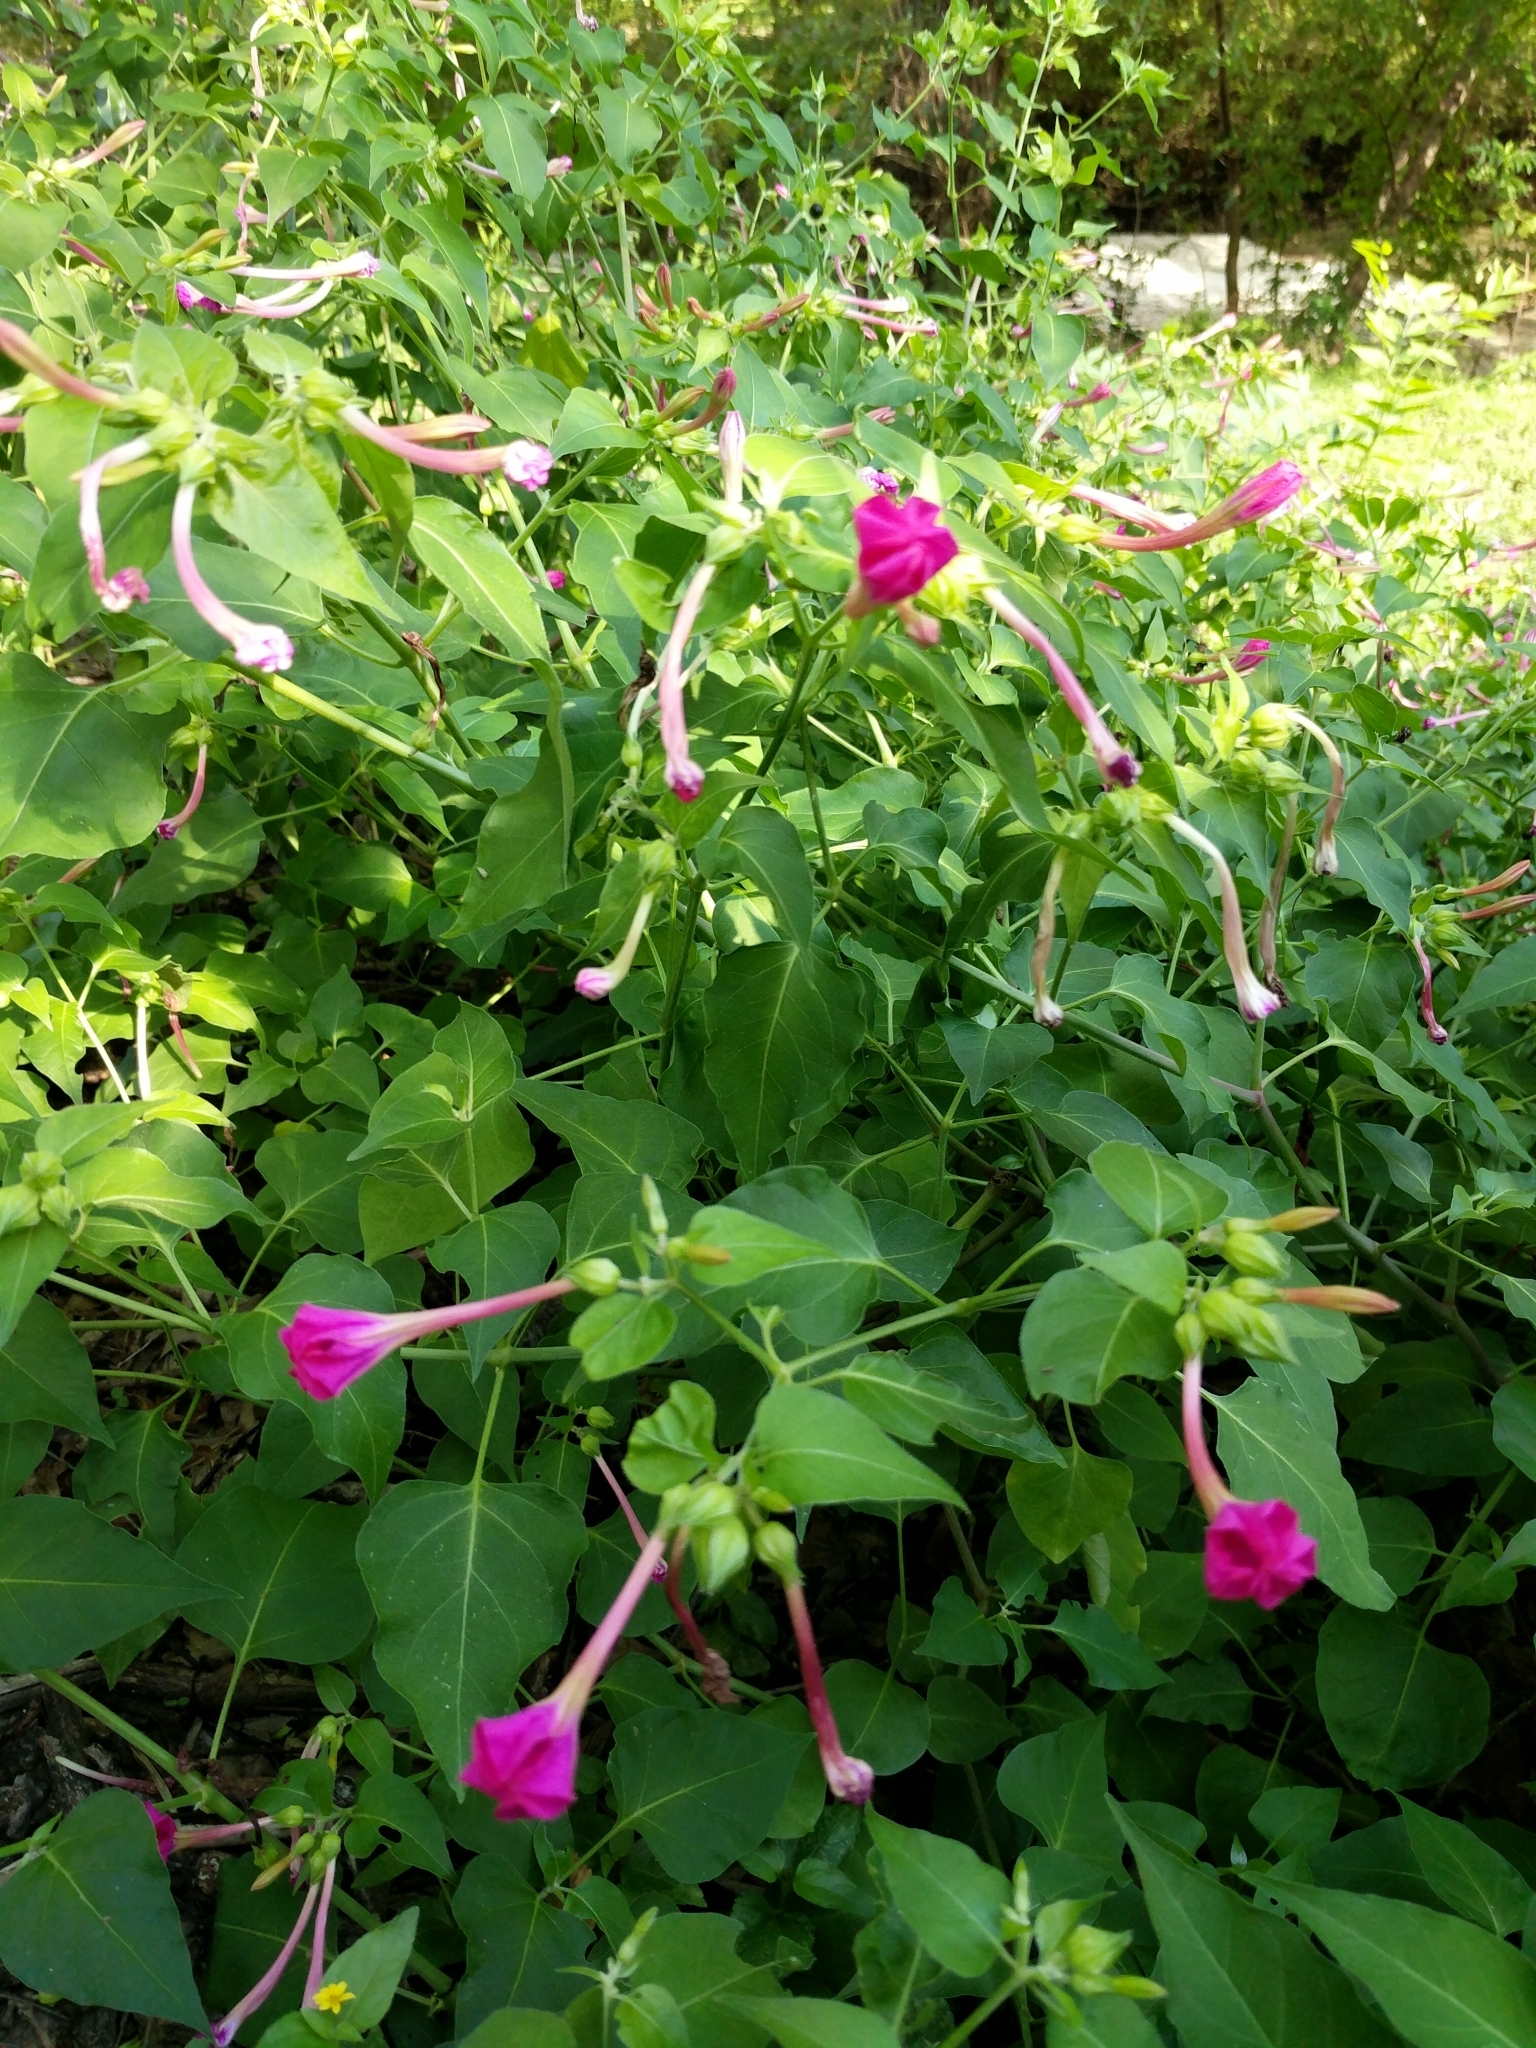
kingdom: Plantae
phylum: Tracheophyta
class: Magnoliopsida
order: Caryophyllales
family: Nyctaginaceae
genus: Mirabilis
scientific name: Mirabilis jalapa
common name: Marvel-of-peru
